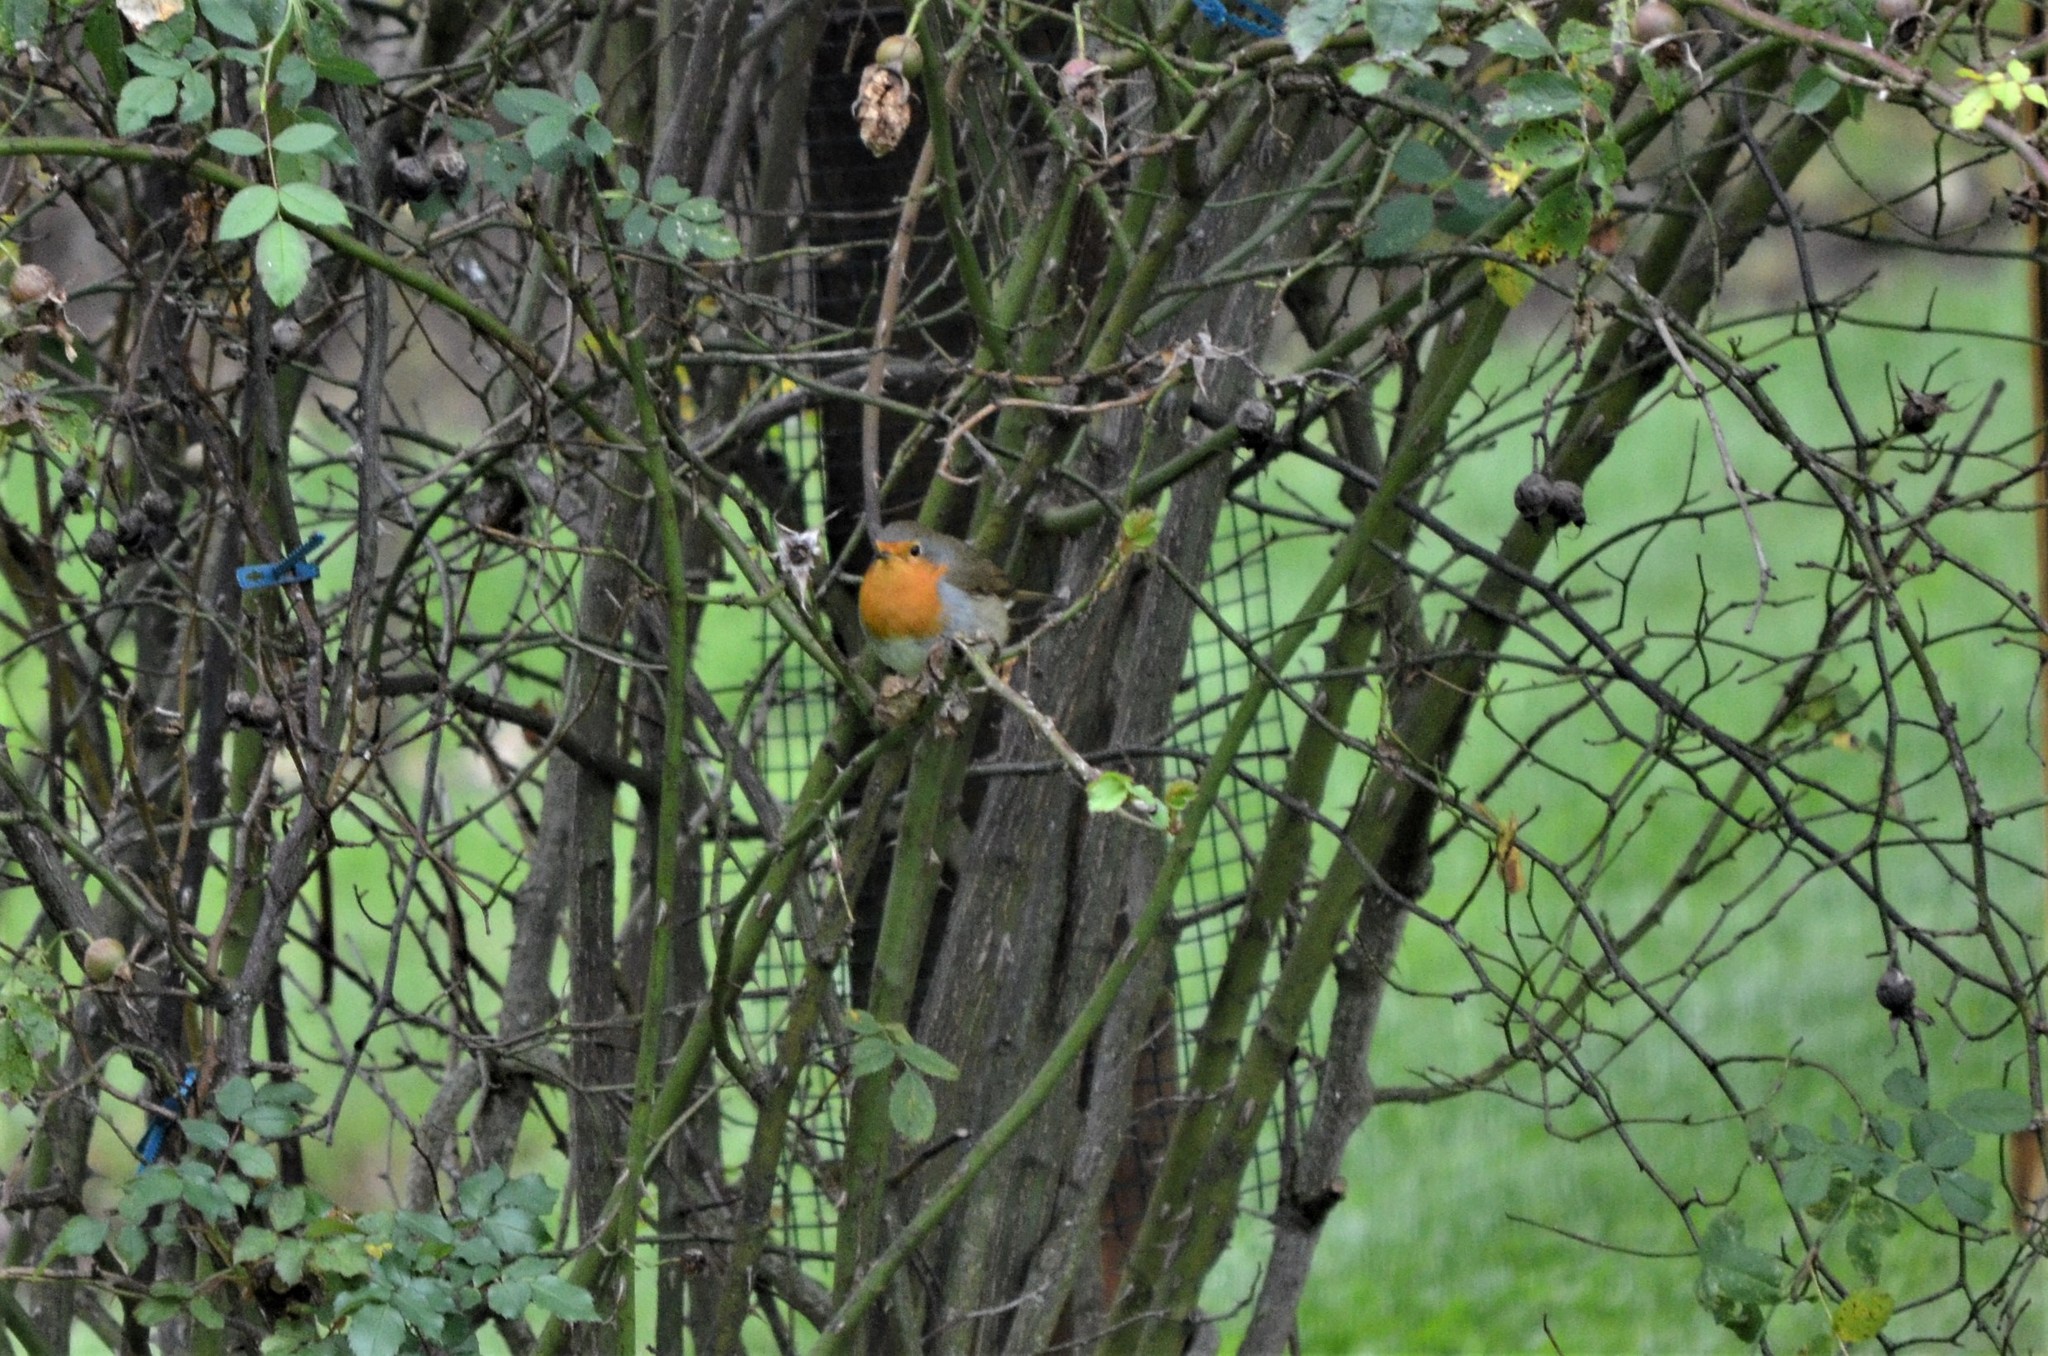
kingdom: Animalia
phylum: Chordata
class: Aves
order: Passeriformes
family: Muscicapidae
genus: Erithacus
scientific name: Erithacus rubecula
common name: European robin
